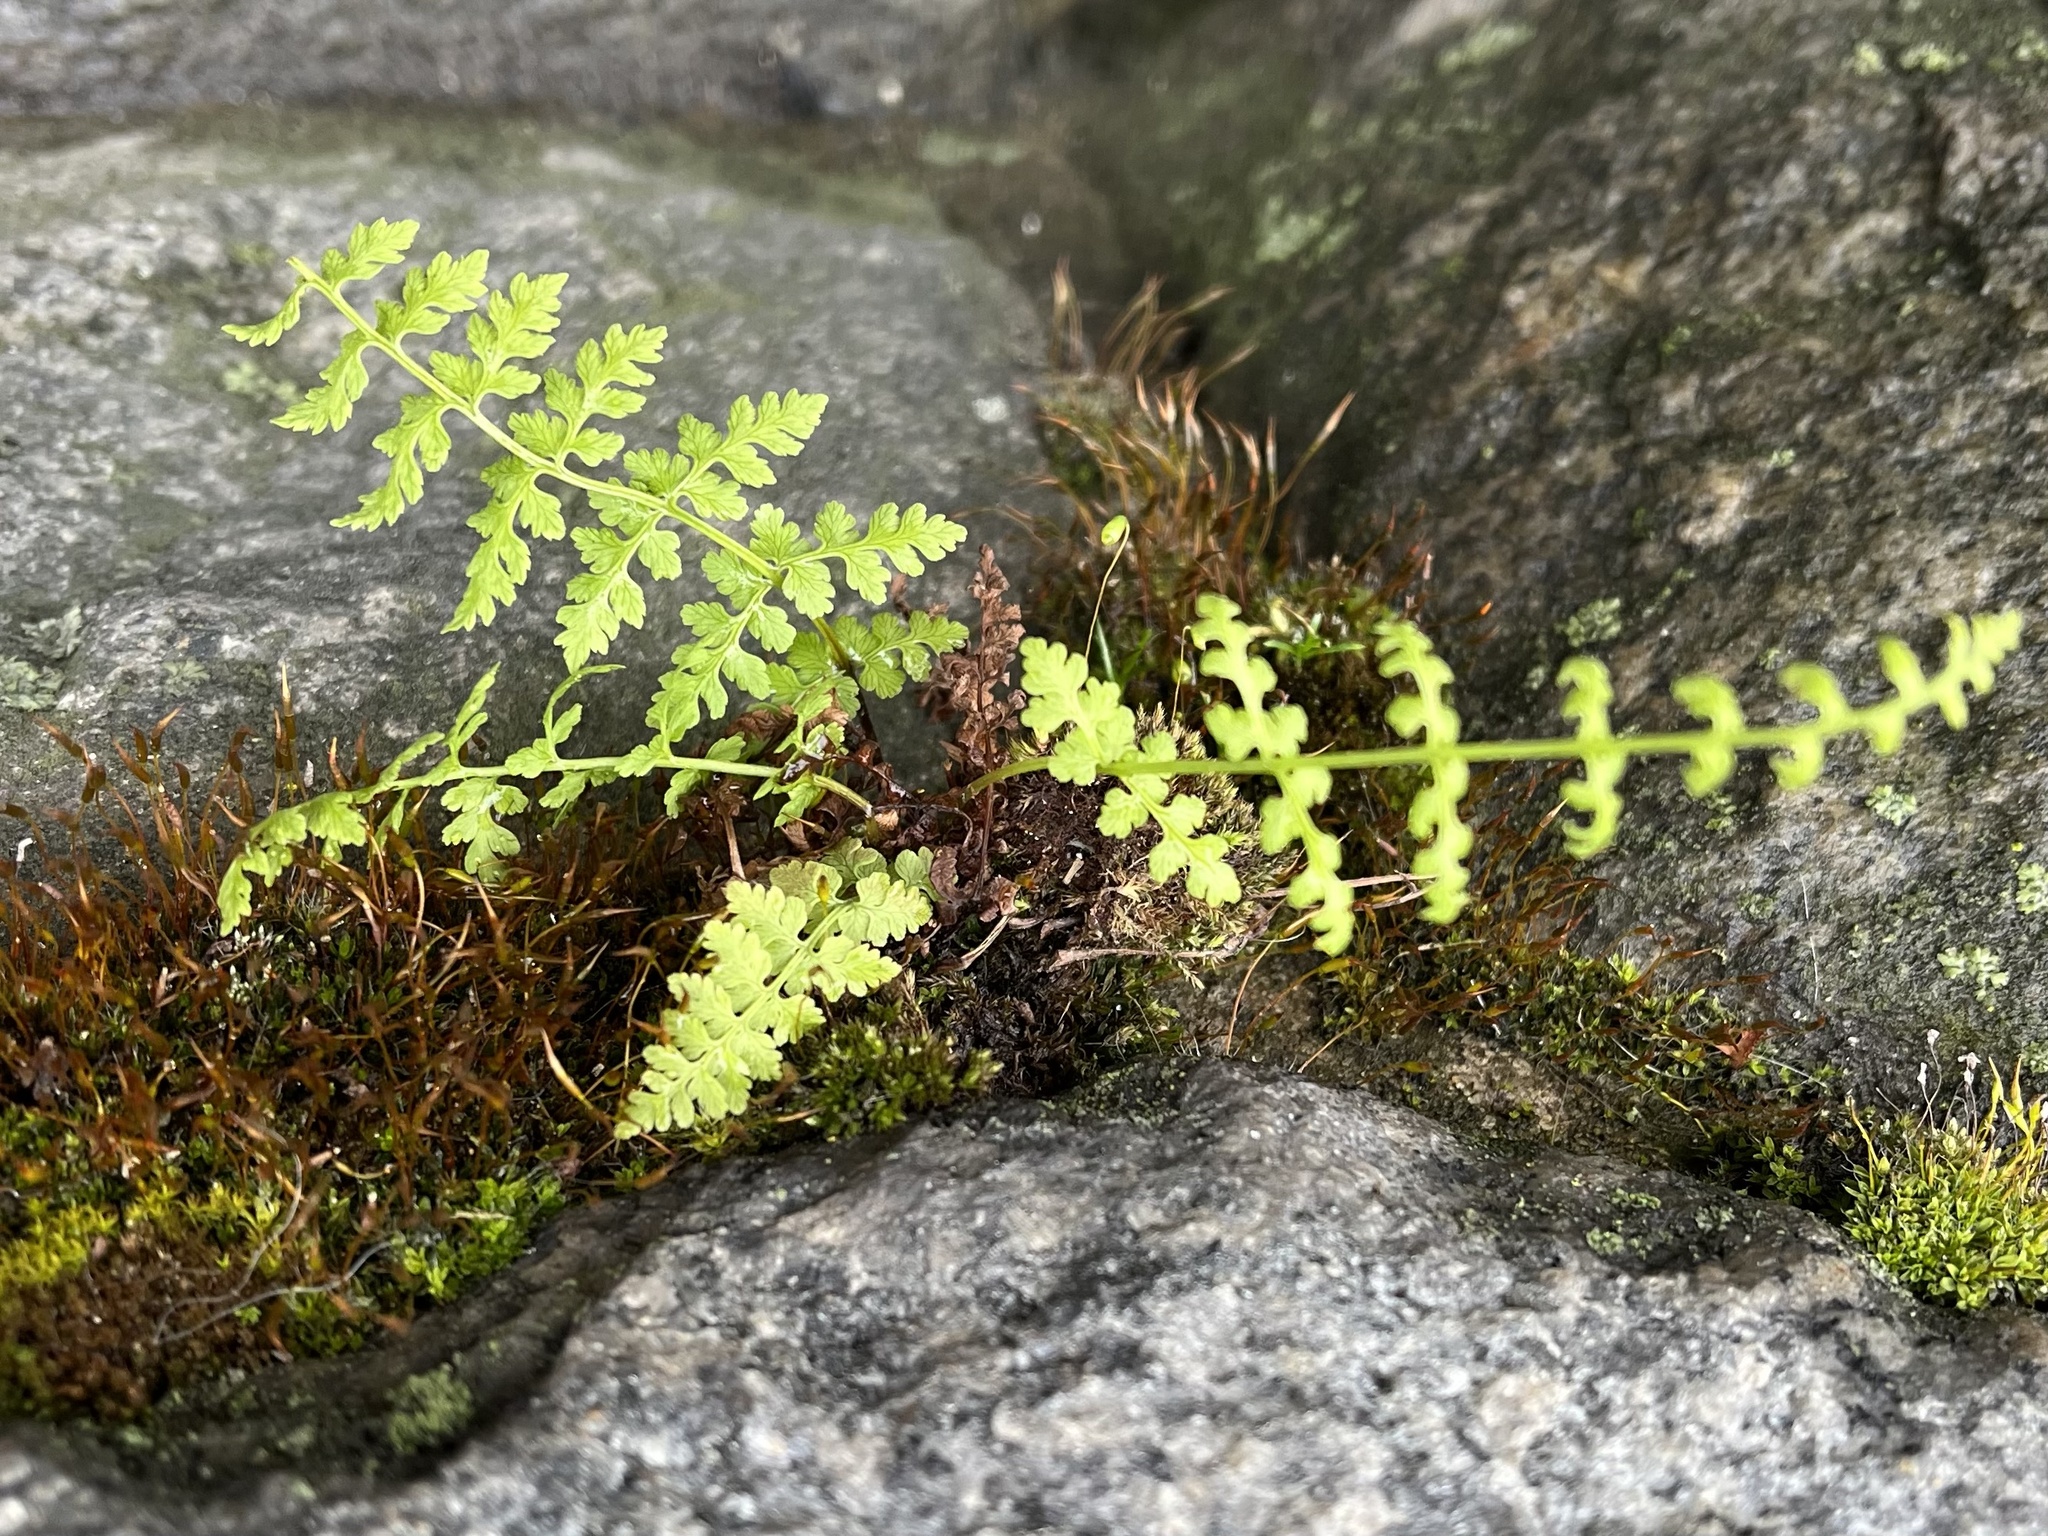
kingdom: Plantae
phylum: Tracheophyta
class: Polypodiopsida
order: Polypodiales
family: Cystopteridaceae
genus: Cystopteris
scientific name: Cystopteris fragilis
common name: Brittle bladder fern
